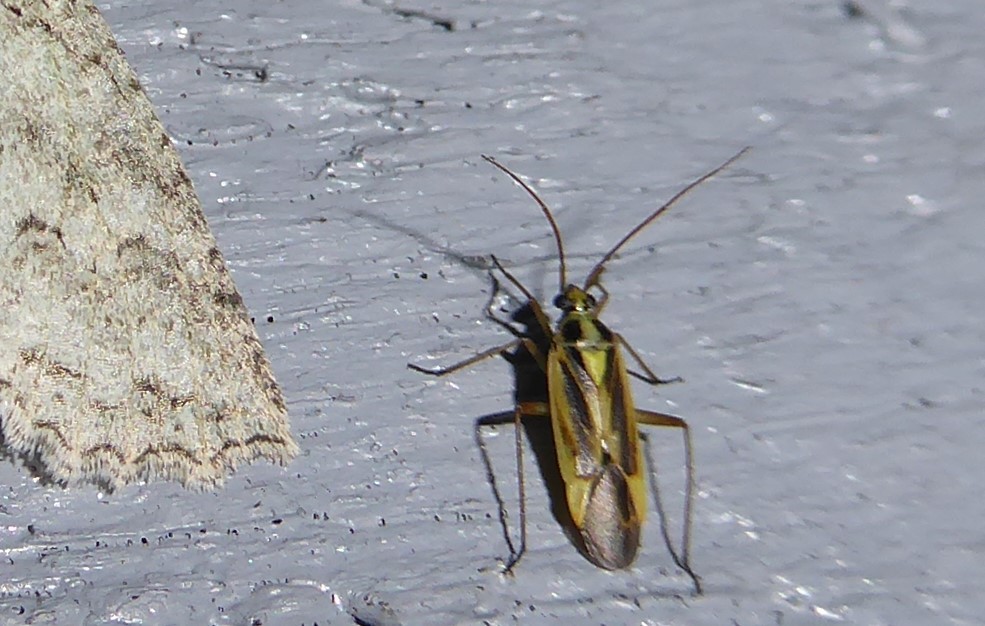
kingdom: Animalia
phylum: Arthropoda
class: Insecta
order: Hemiptera
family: Miridae
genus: Stenotus
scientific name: Stenotus binotatus
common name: Plant bug
